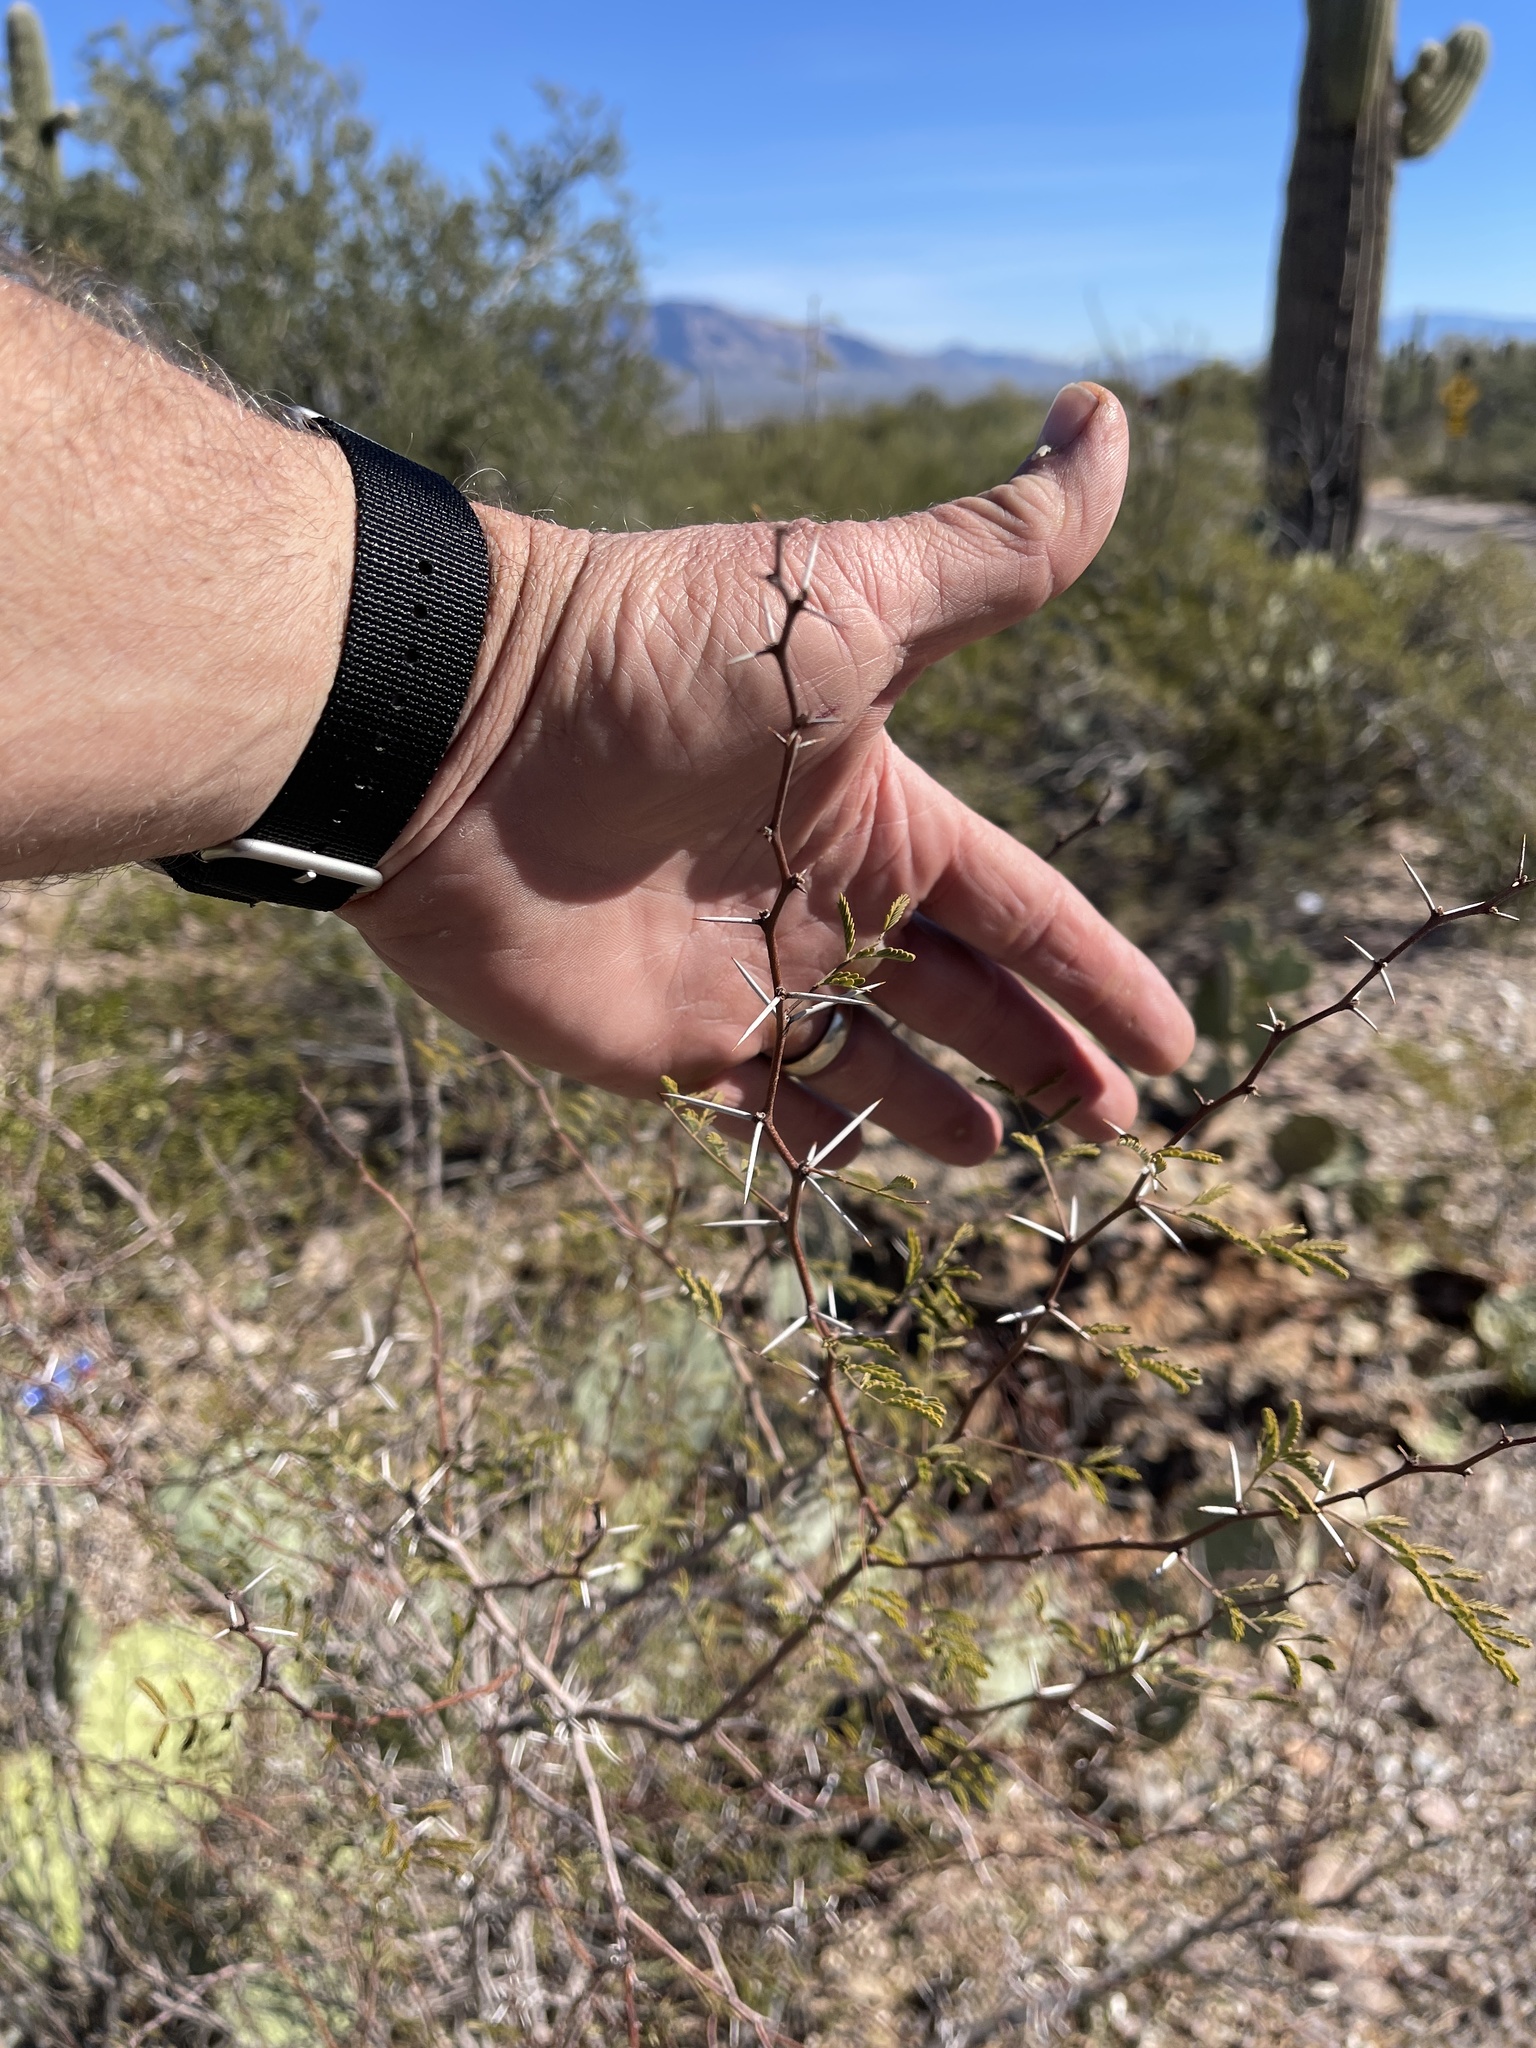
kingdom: Plantae
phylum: Tracheophyta
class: Magnoliopsida
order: Fabales
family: Fabaceae
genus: Vachellia
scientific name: Vachellia constricta
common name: Mescat acacia
